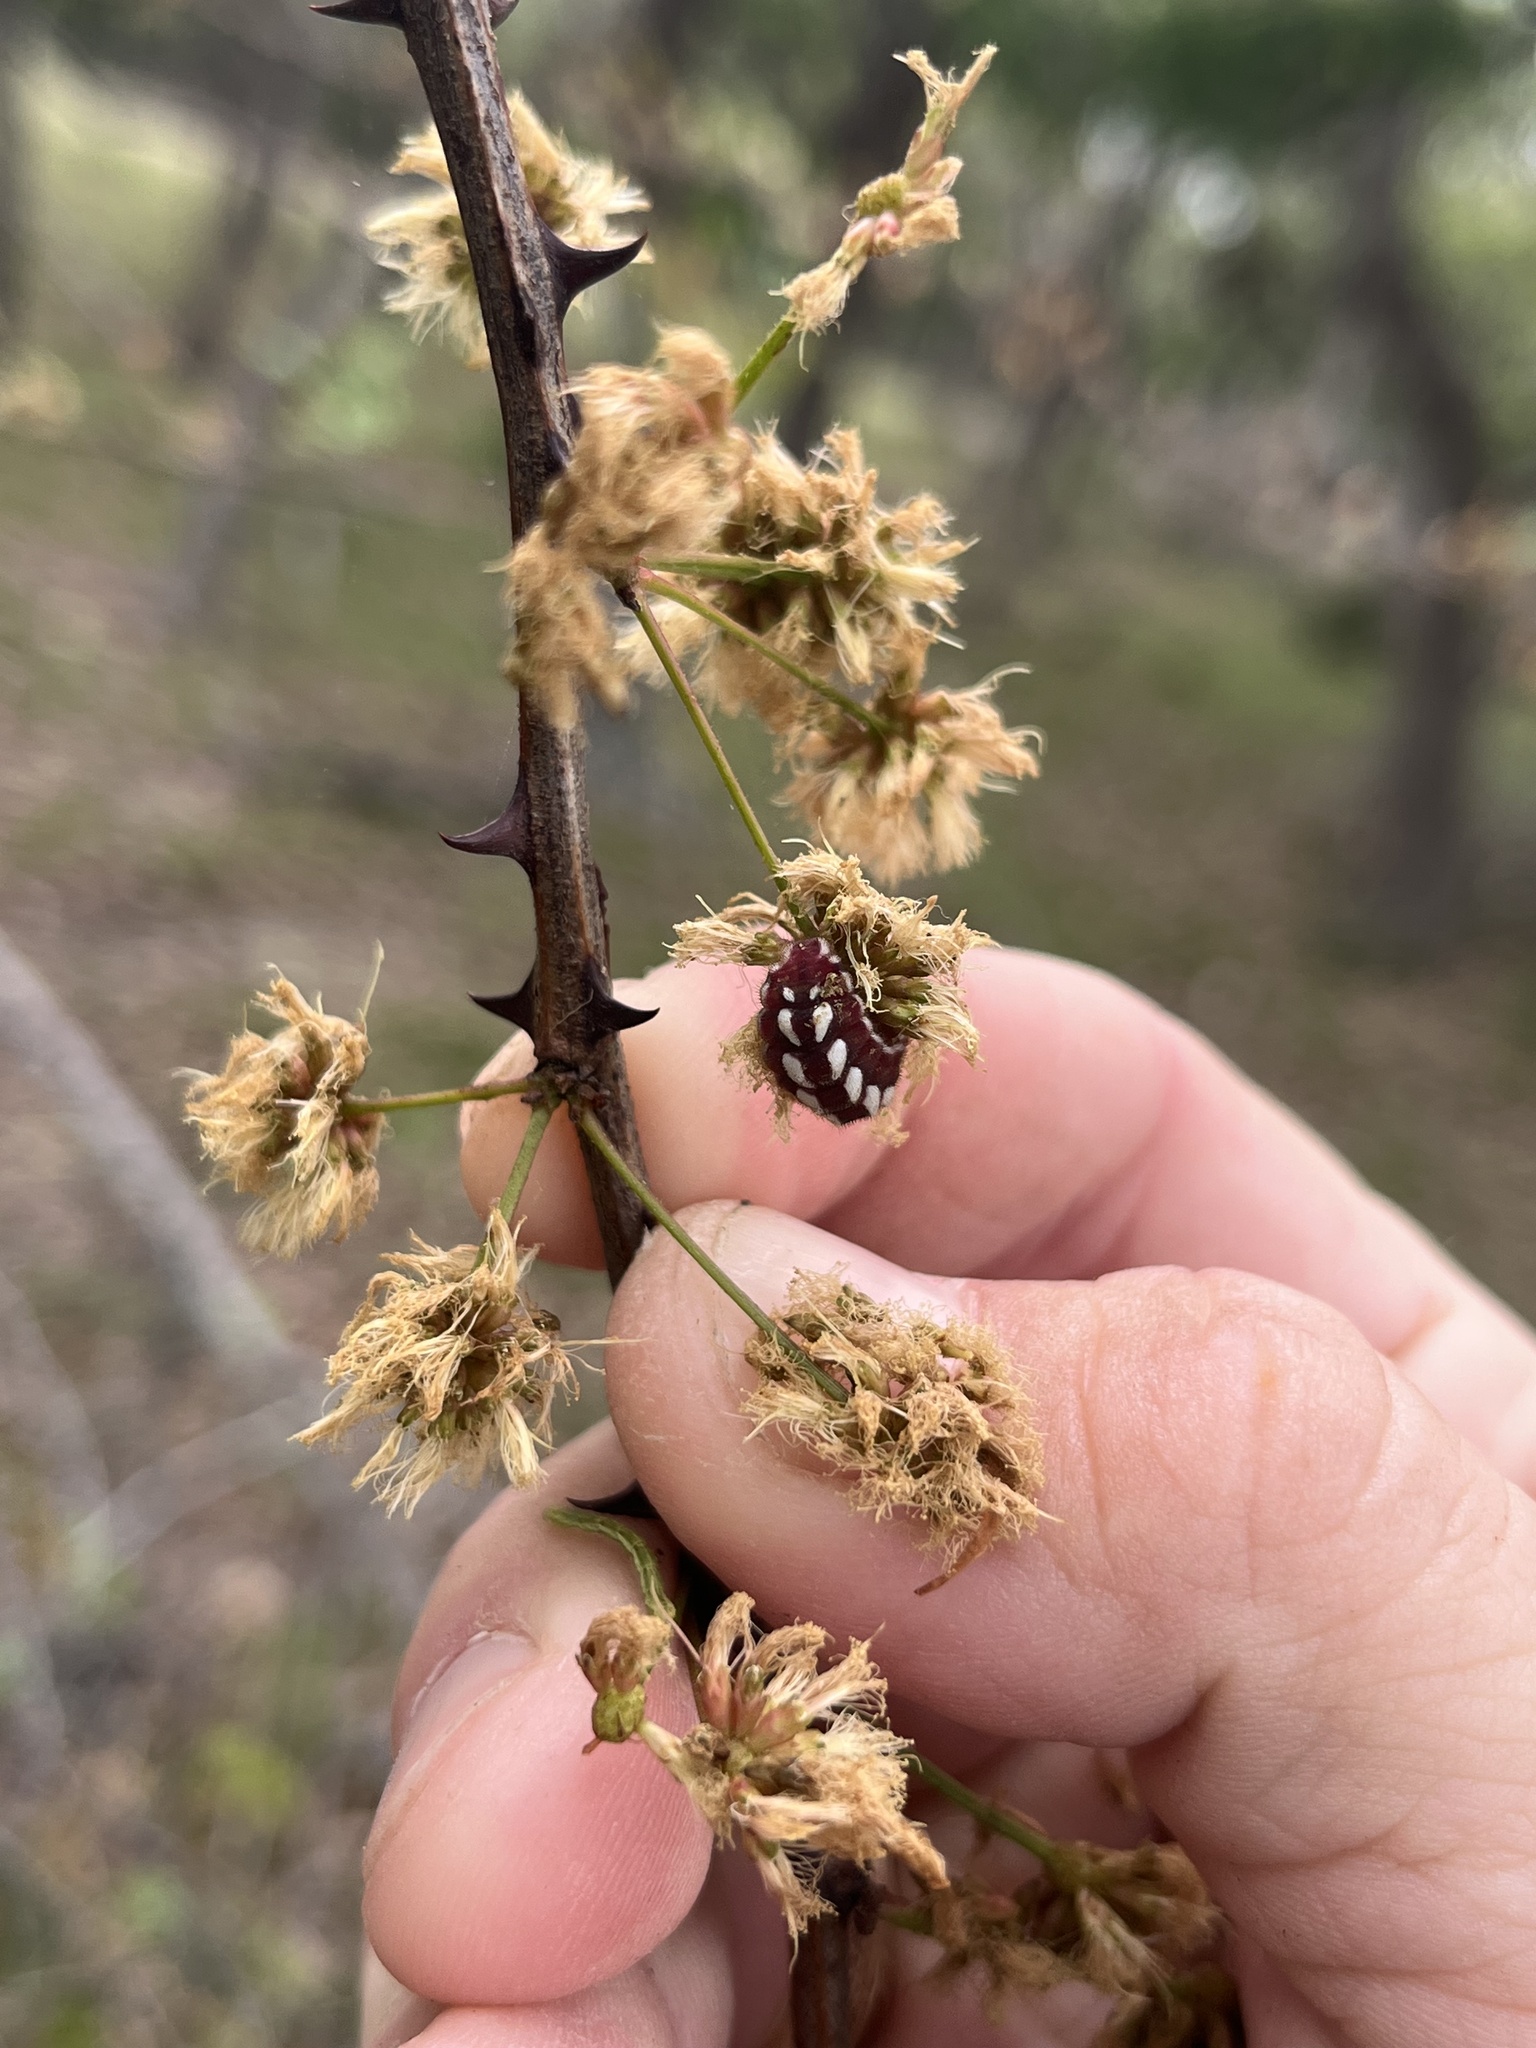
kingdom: Animalia
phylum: Arthropoda
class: Insecta
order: Lepidoptera
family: Lycaenidae
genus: Incisalia
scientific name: Incisalia henrici
